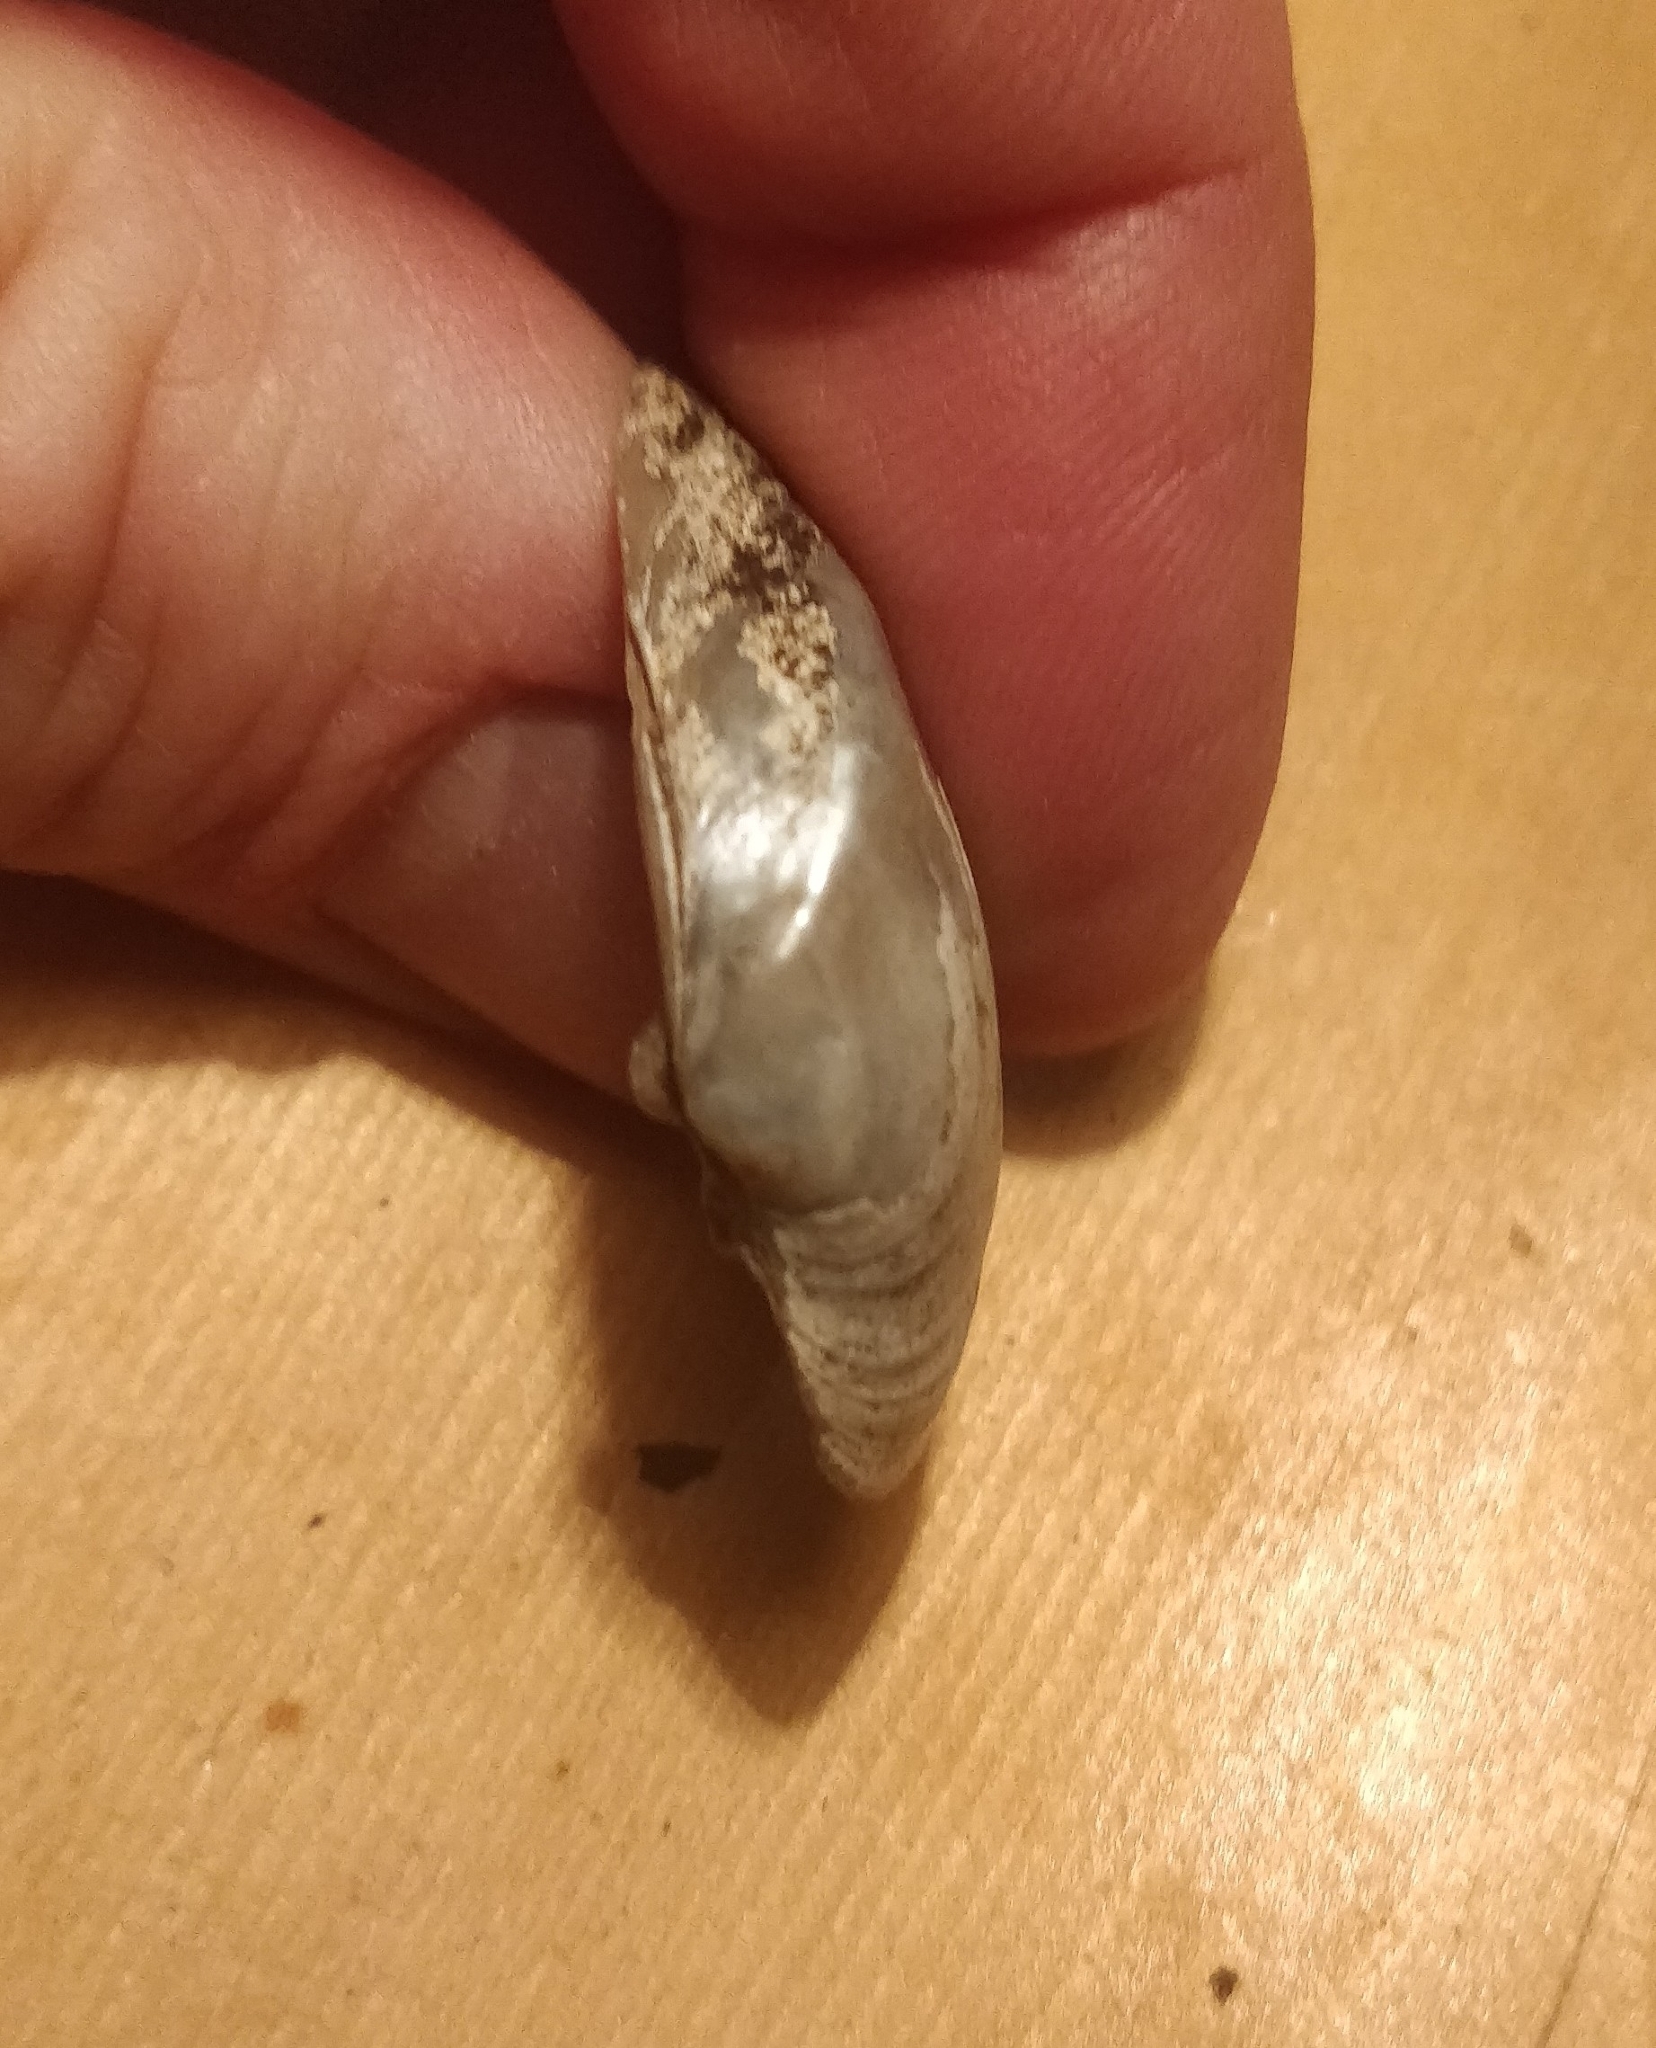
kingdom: Animalia
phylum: Mollusca
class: Bivalvia
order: Unionida
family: Unionidae
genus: Truncilla
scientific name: Truncilla truncata
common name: Deertoe
